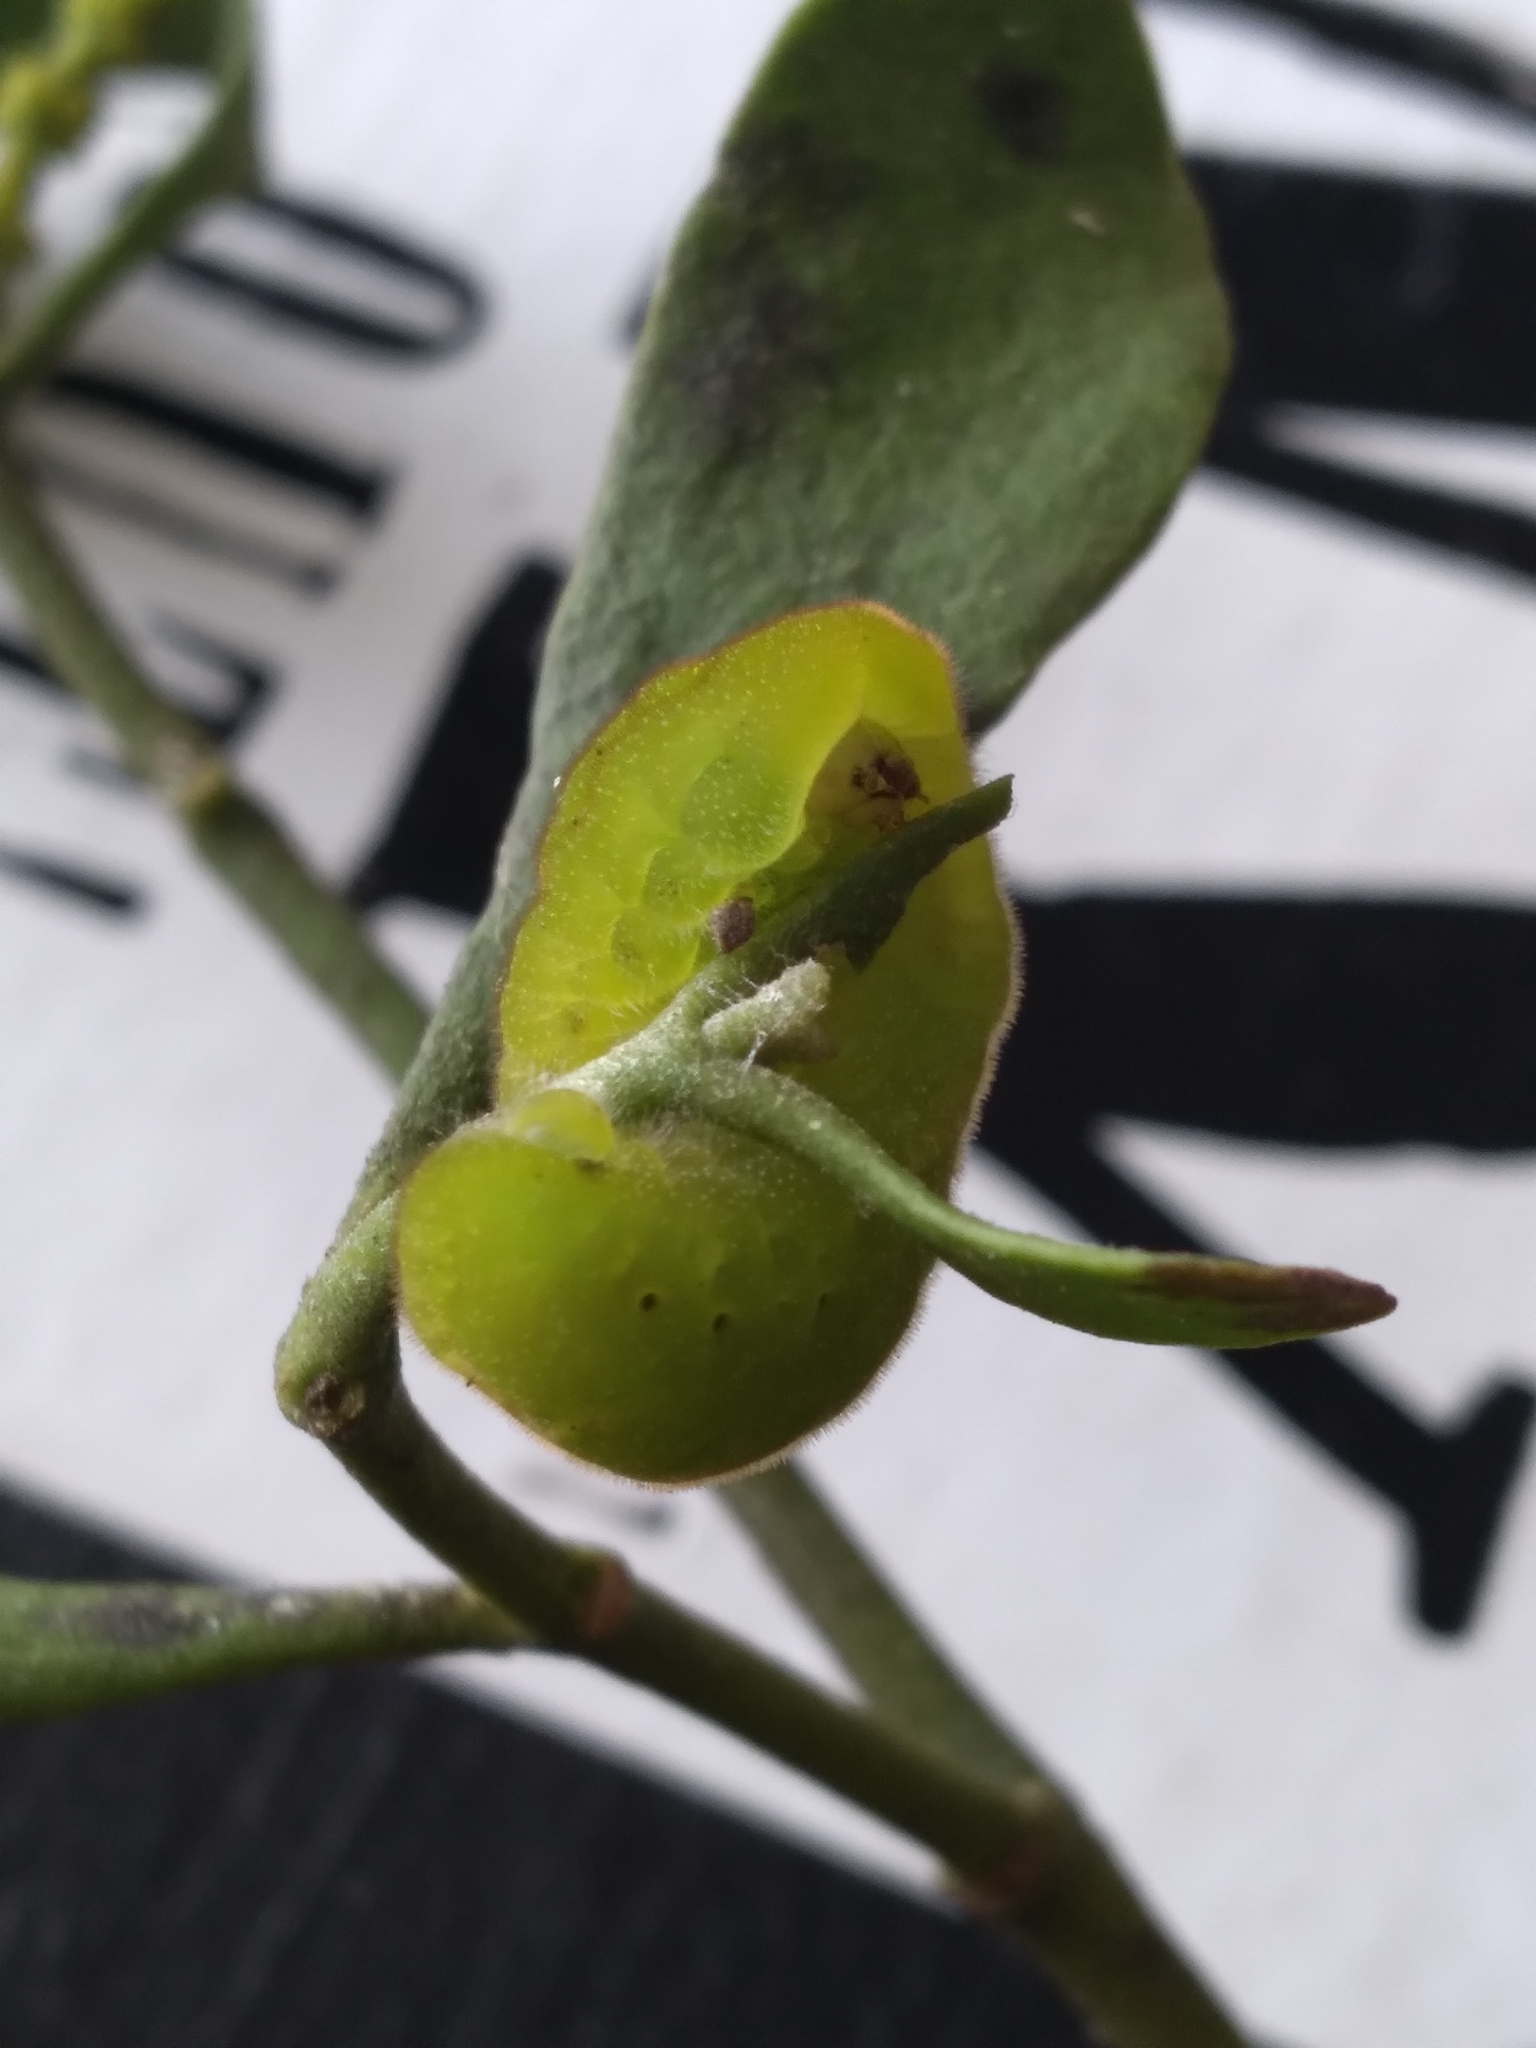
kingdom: Animalia
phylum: Arthropoda
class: Insecta
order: Lepidoptera
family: Lycaenidae
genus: Atlides
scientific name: Atlides halesus
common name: Great purple hairstreak
